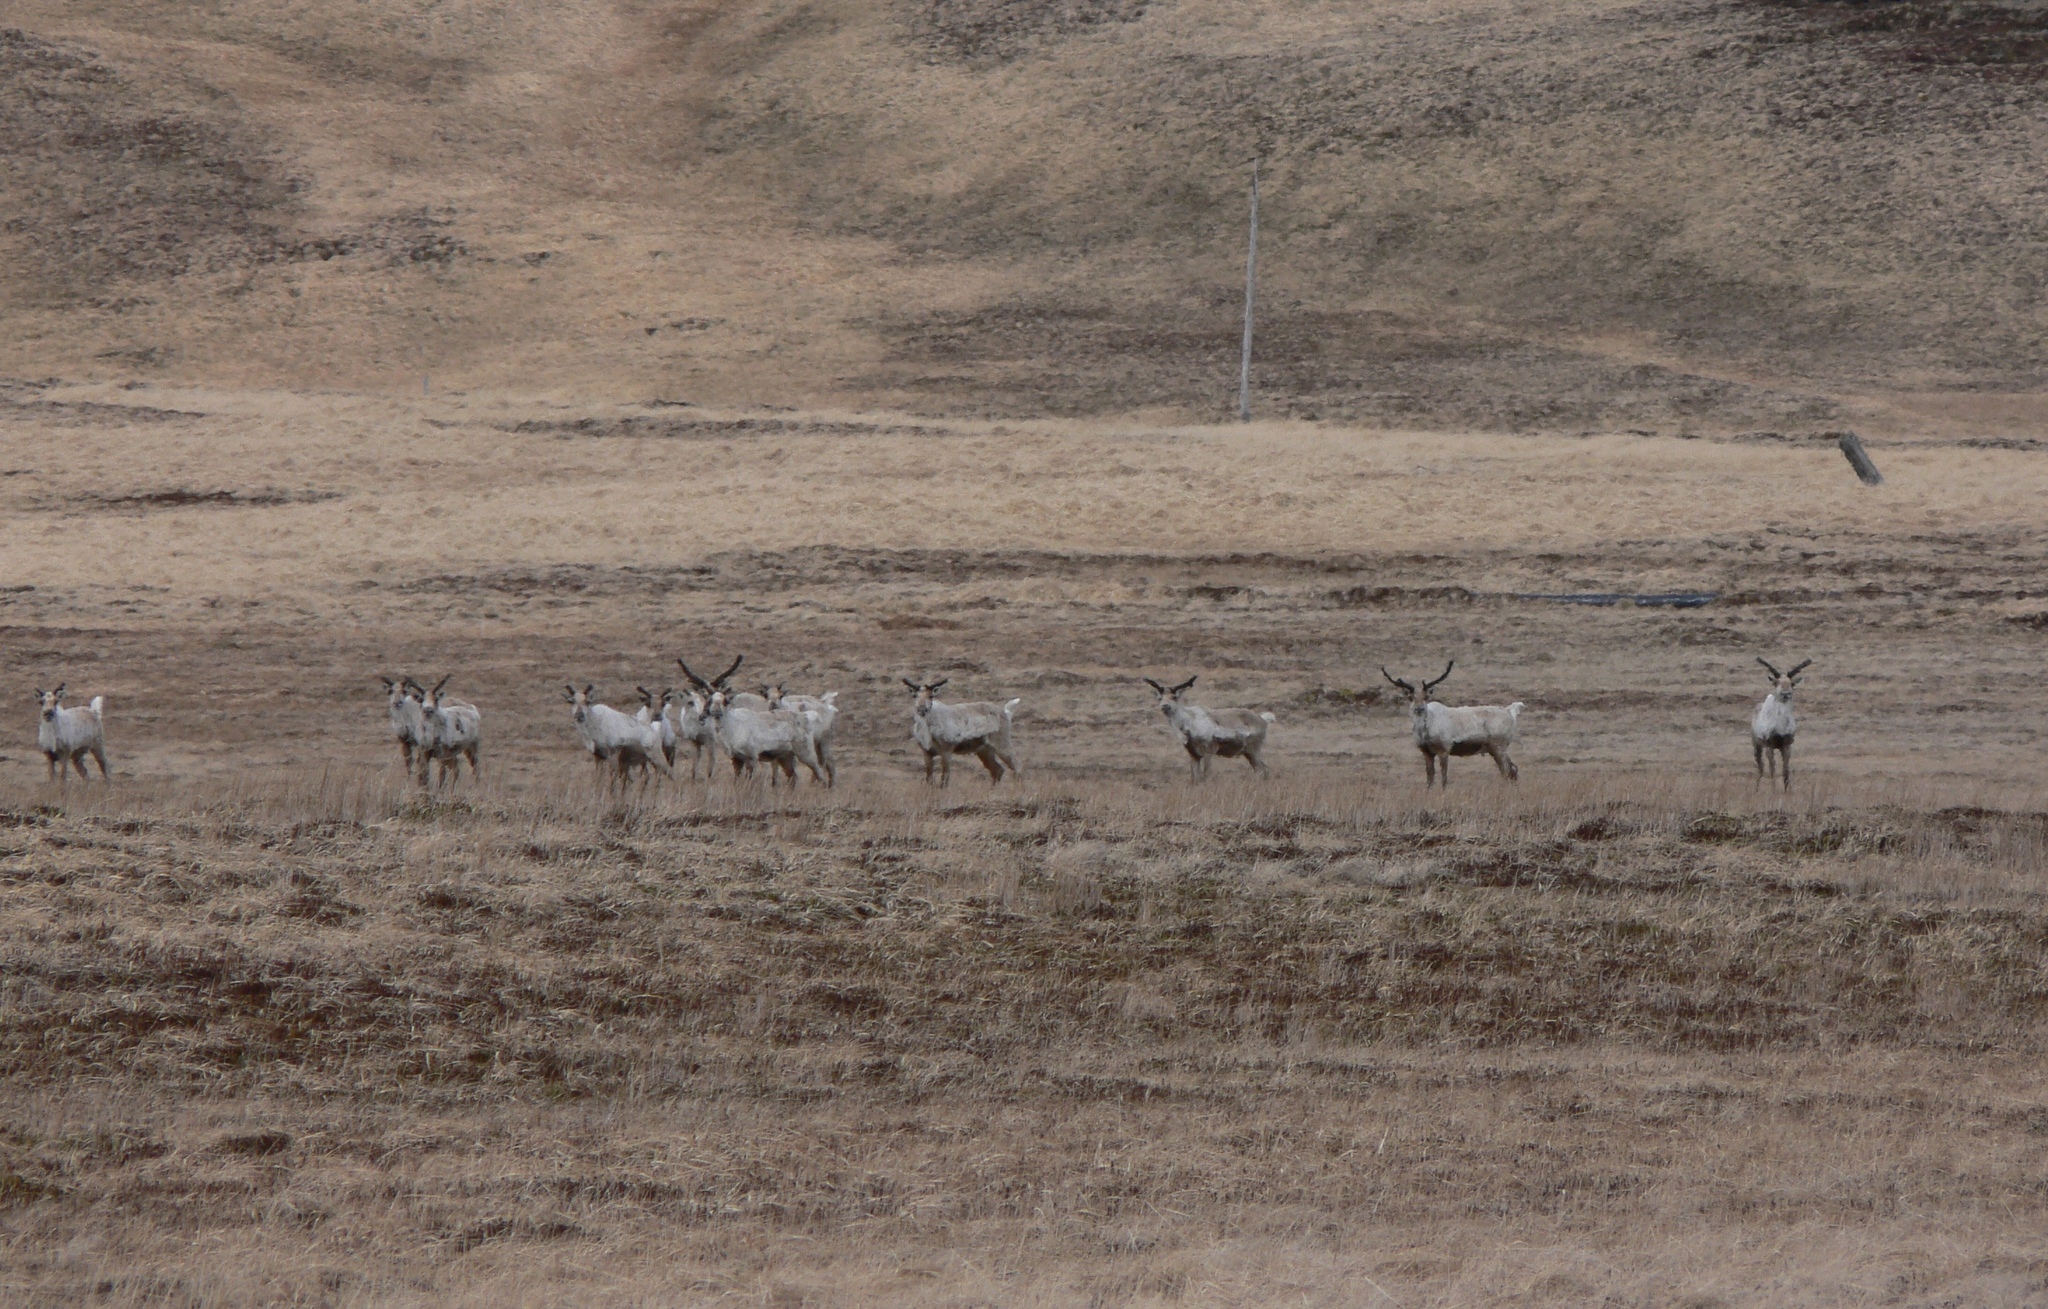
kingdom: Animalia
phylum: Chordata
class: Mammalia
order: Artiodactyla
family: Cervidae
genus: Rangifer
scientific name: Rangifer tarandus
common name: Reindeer
